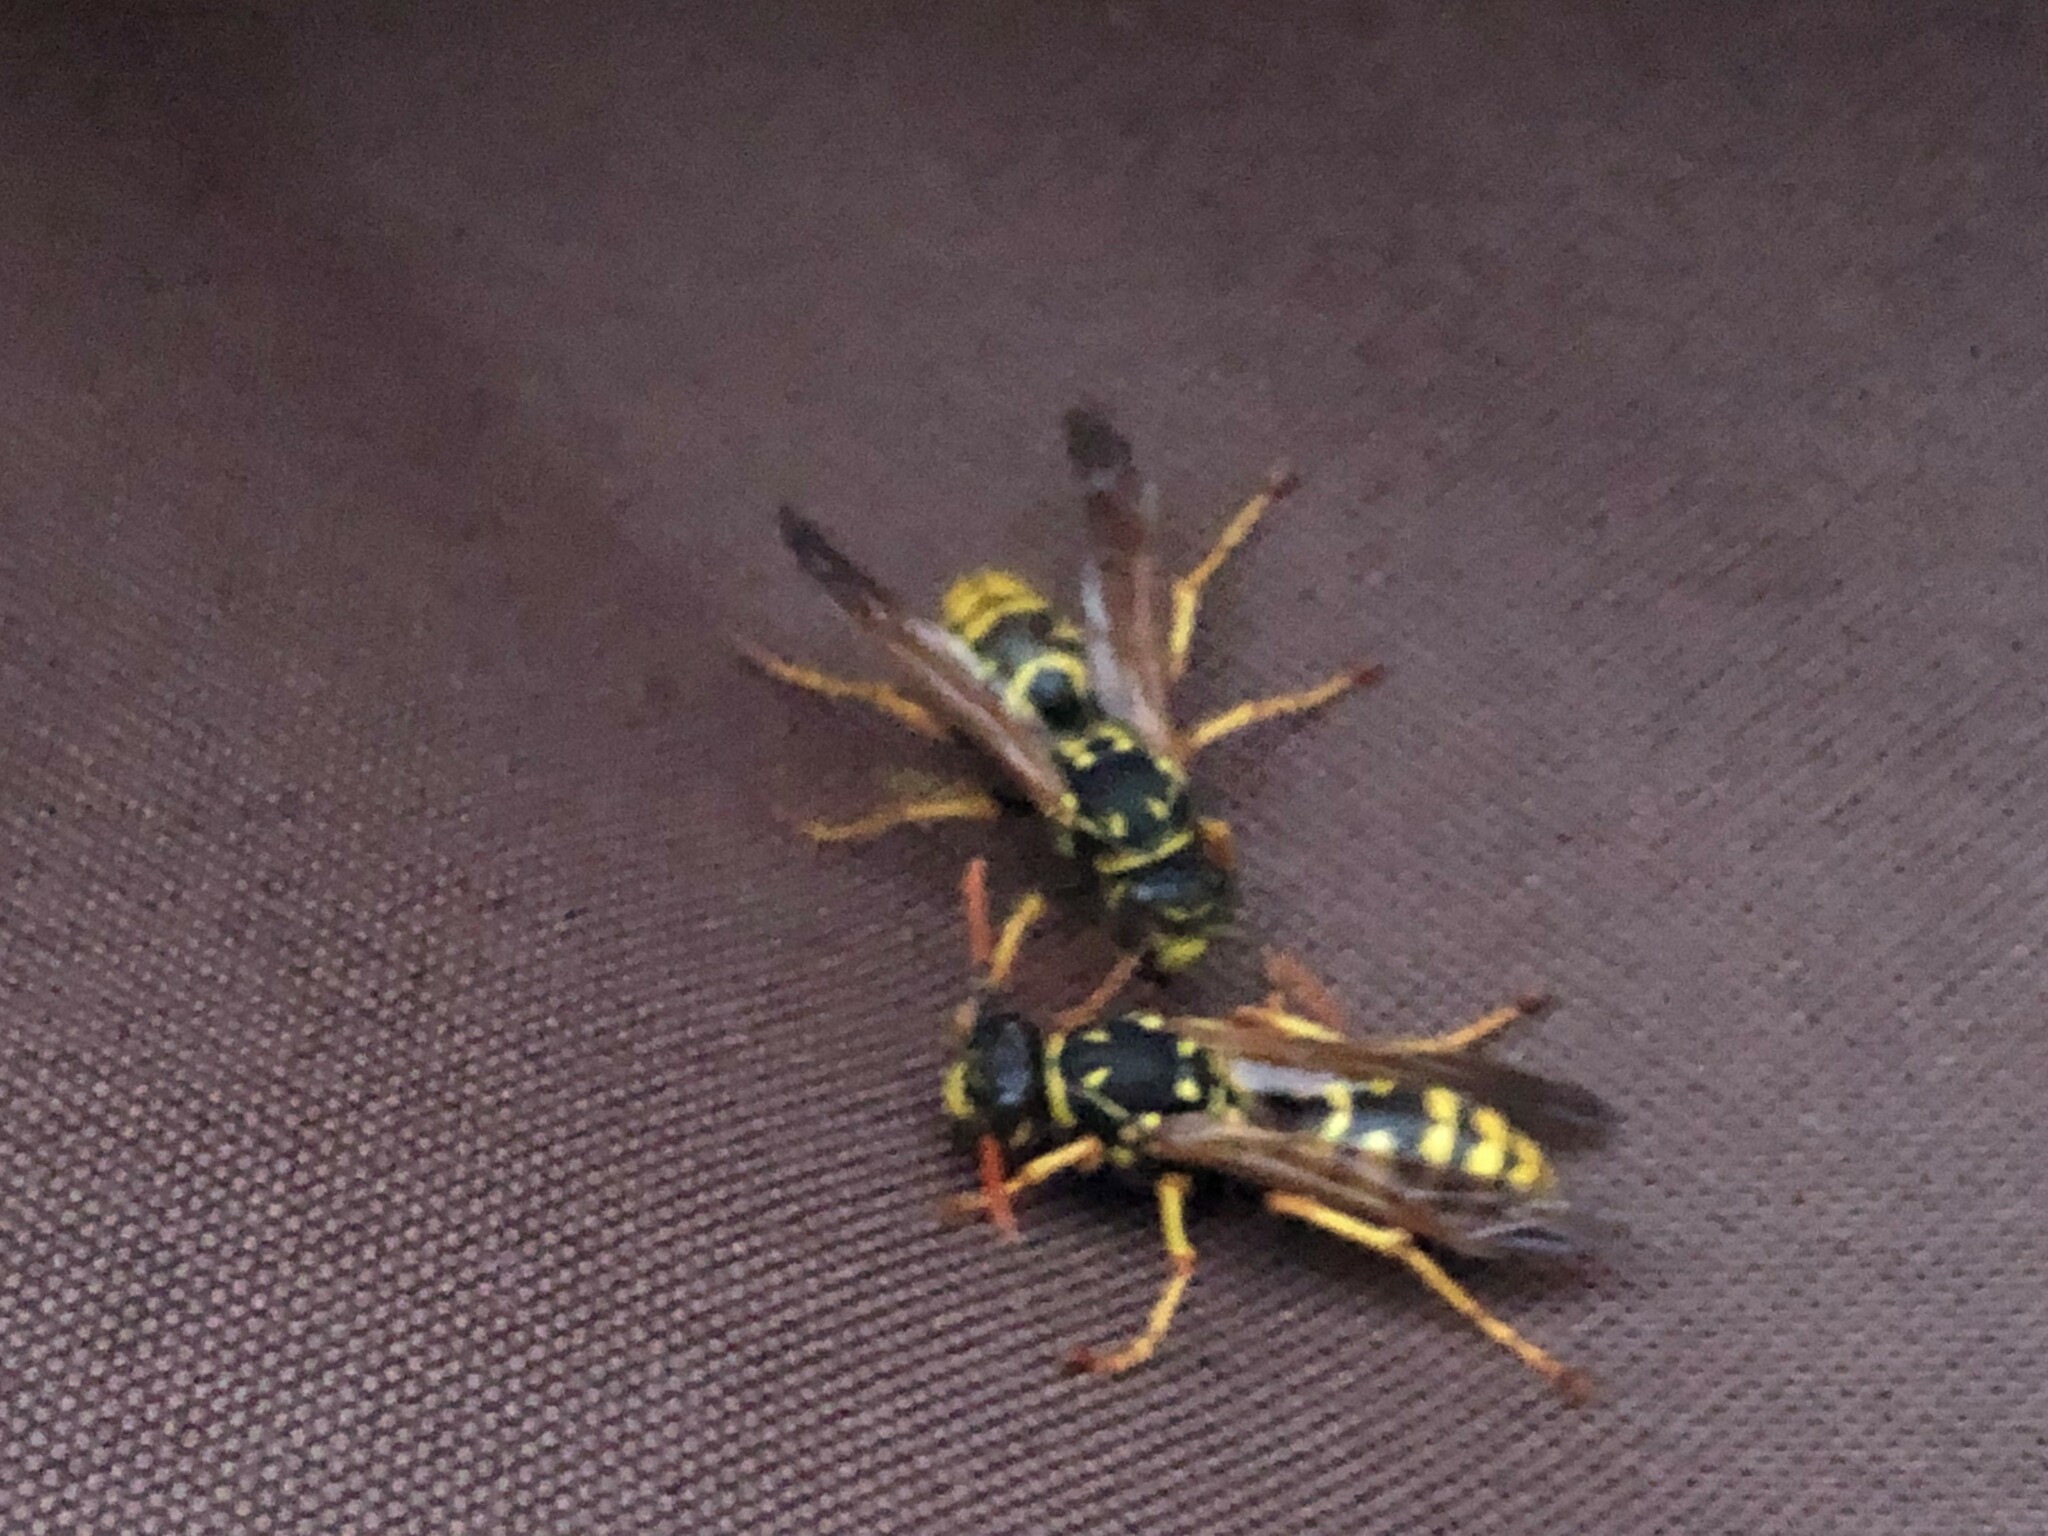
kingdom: Animalia
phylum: Arthropoda
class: Insecta
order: Hymenoptera
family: Eumenidae
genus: Polistes
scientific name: Polistes dominula
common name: Paper wasp
